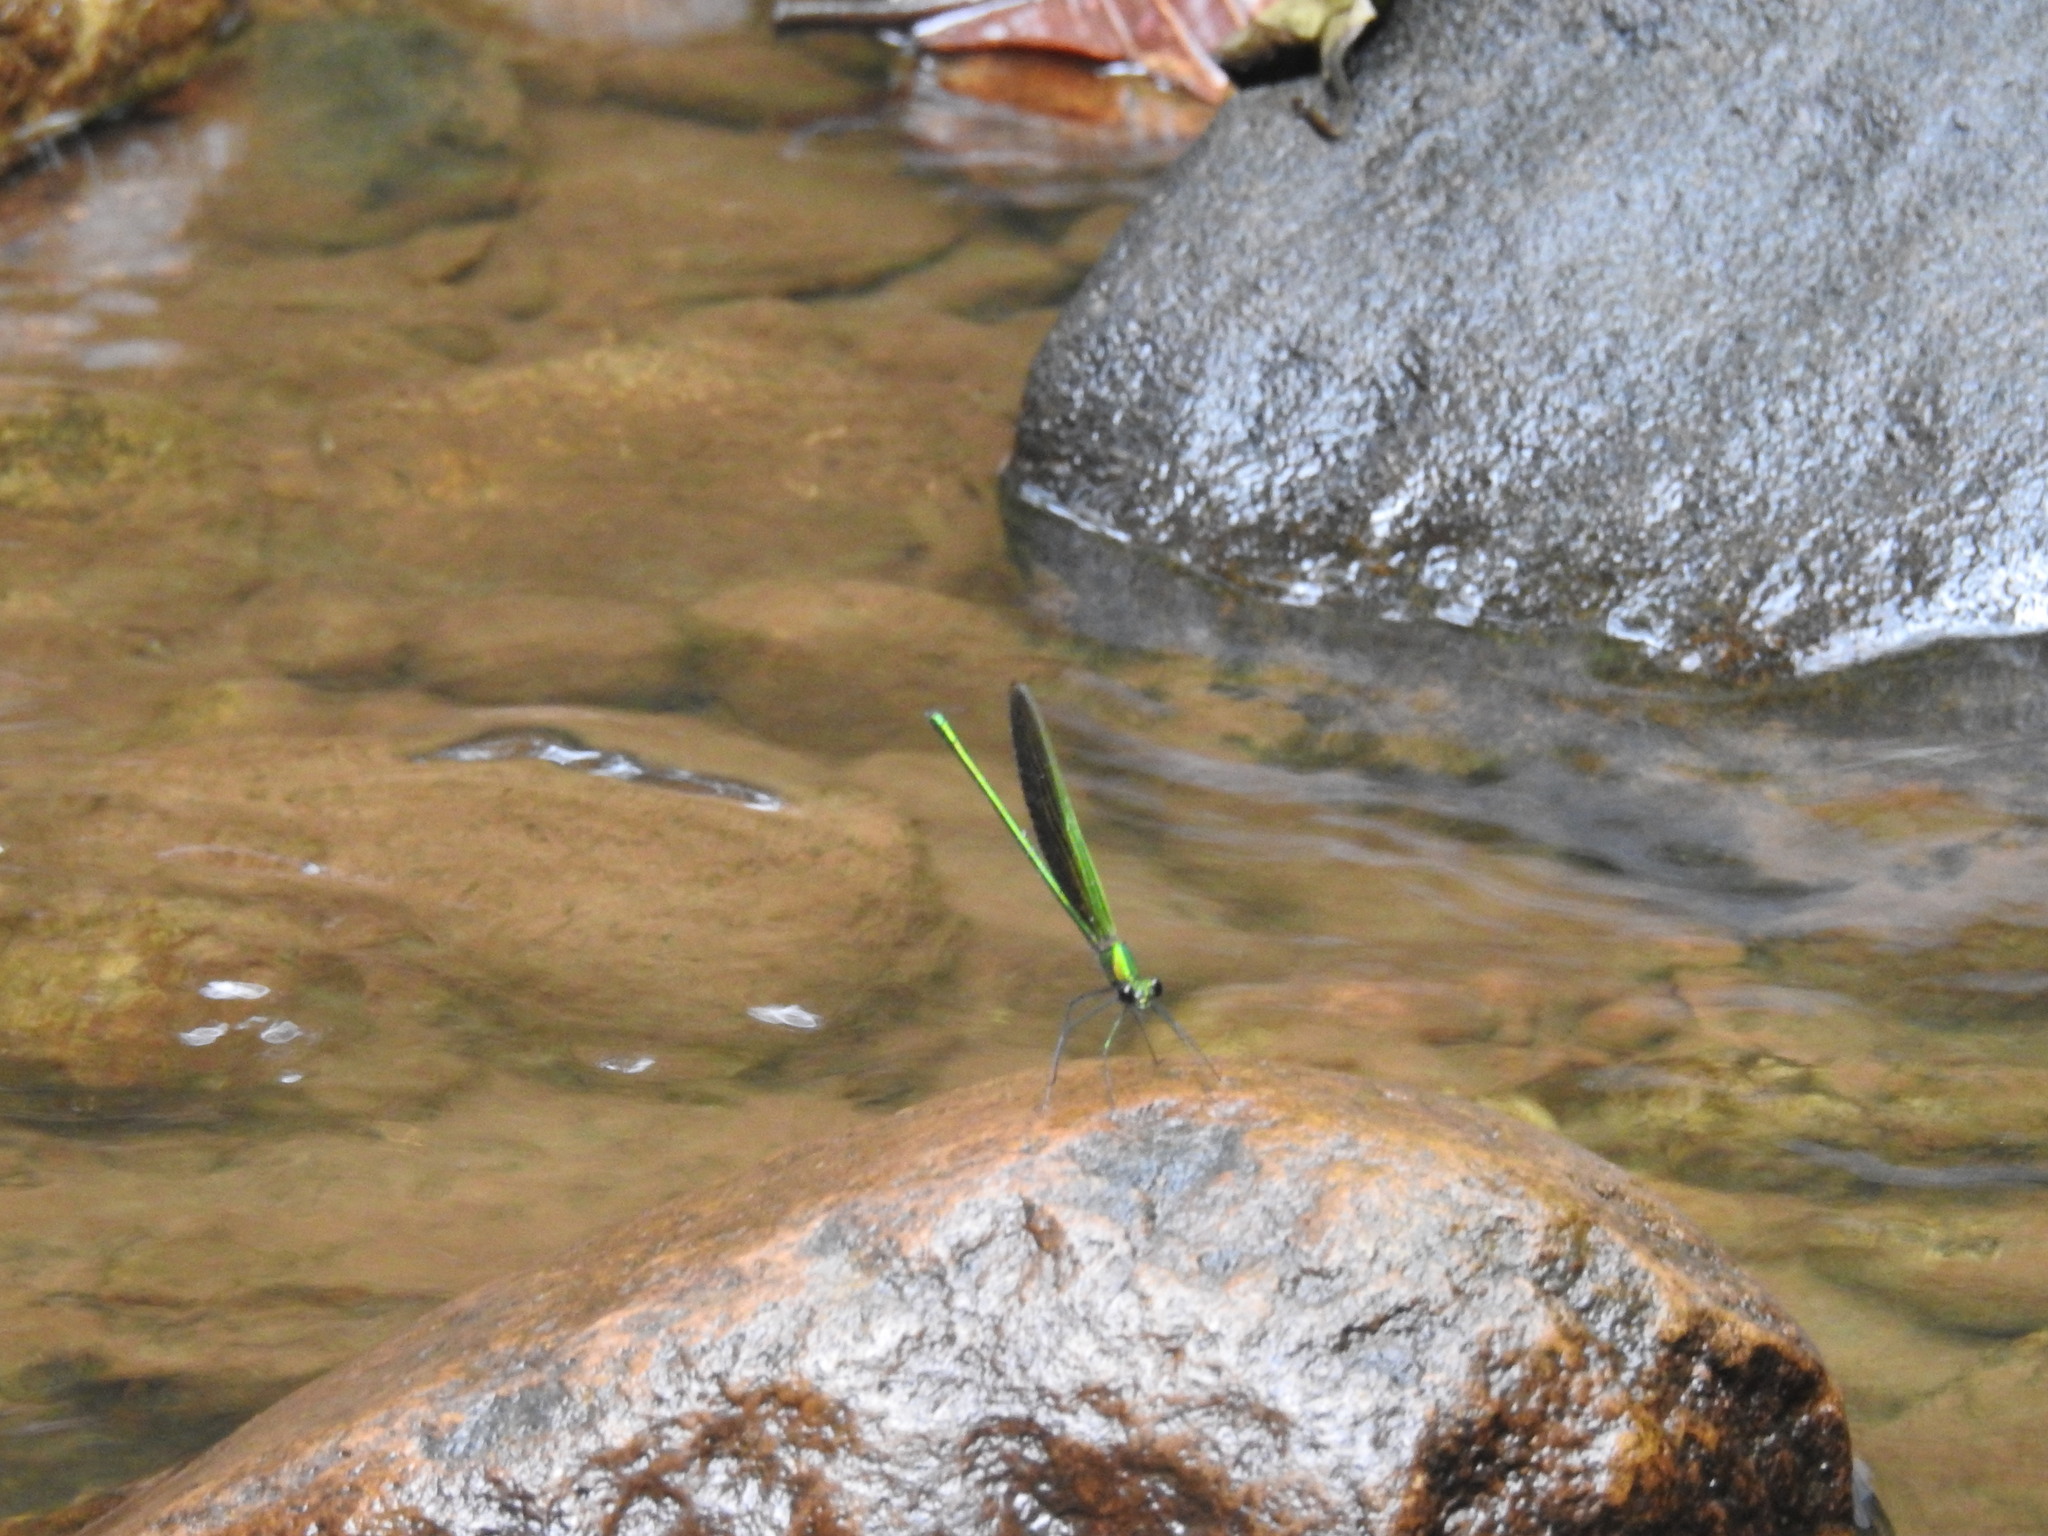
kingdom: Animalia
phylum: Arthropoda
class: Insecta
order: Odonata
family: Calopterygidae
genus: Neurobasis
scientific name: Neurobasis chinensis
